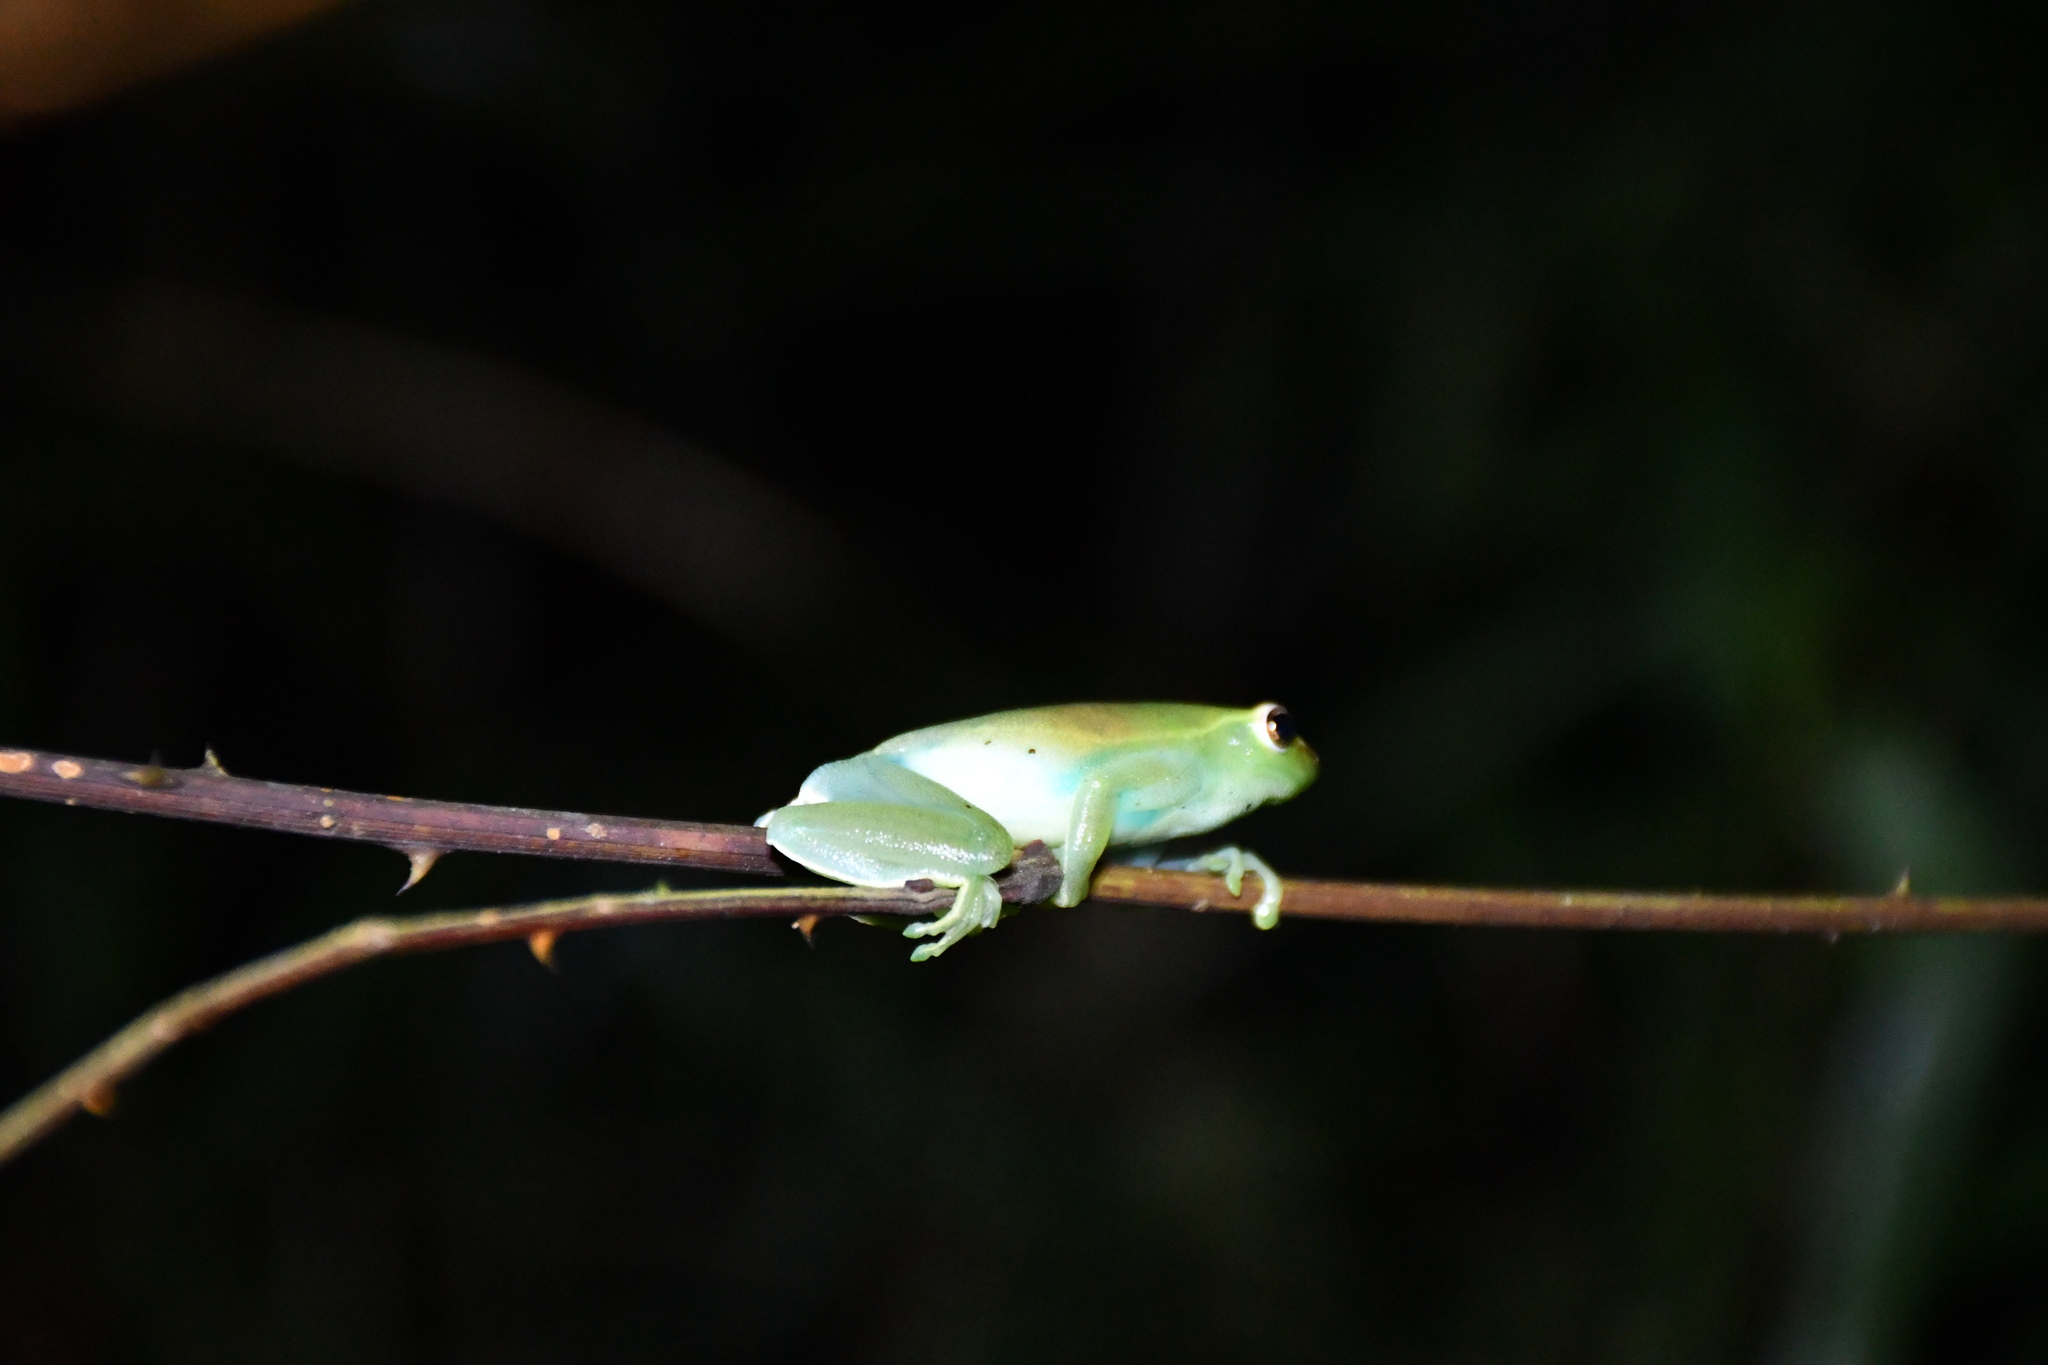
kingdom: Animalia
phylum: Chordata
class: Amphibia
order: Anura
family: Hylidae
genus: Sphaenorhynchus
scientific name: Sphaenorhynchus lacteus
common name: Orinoco lime treefrog
